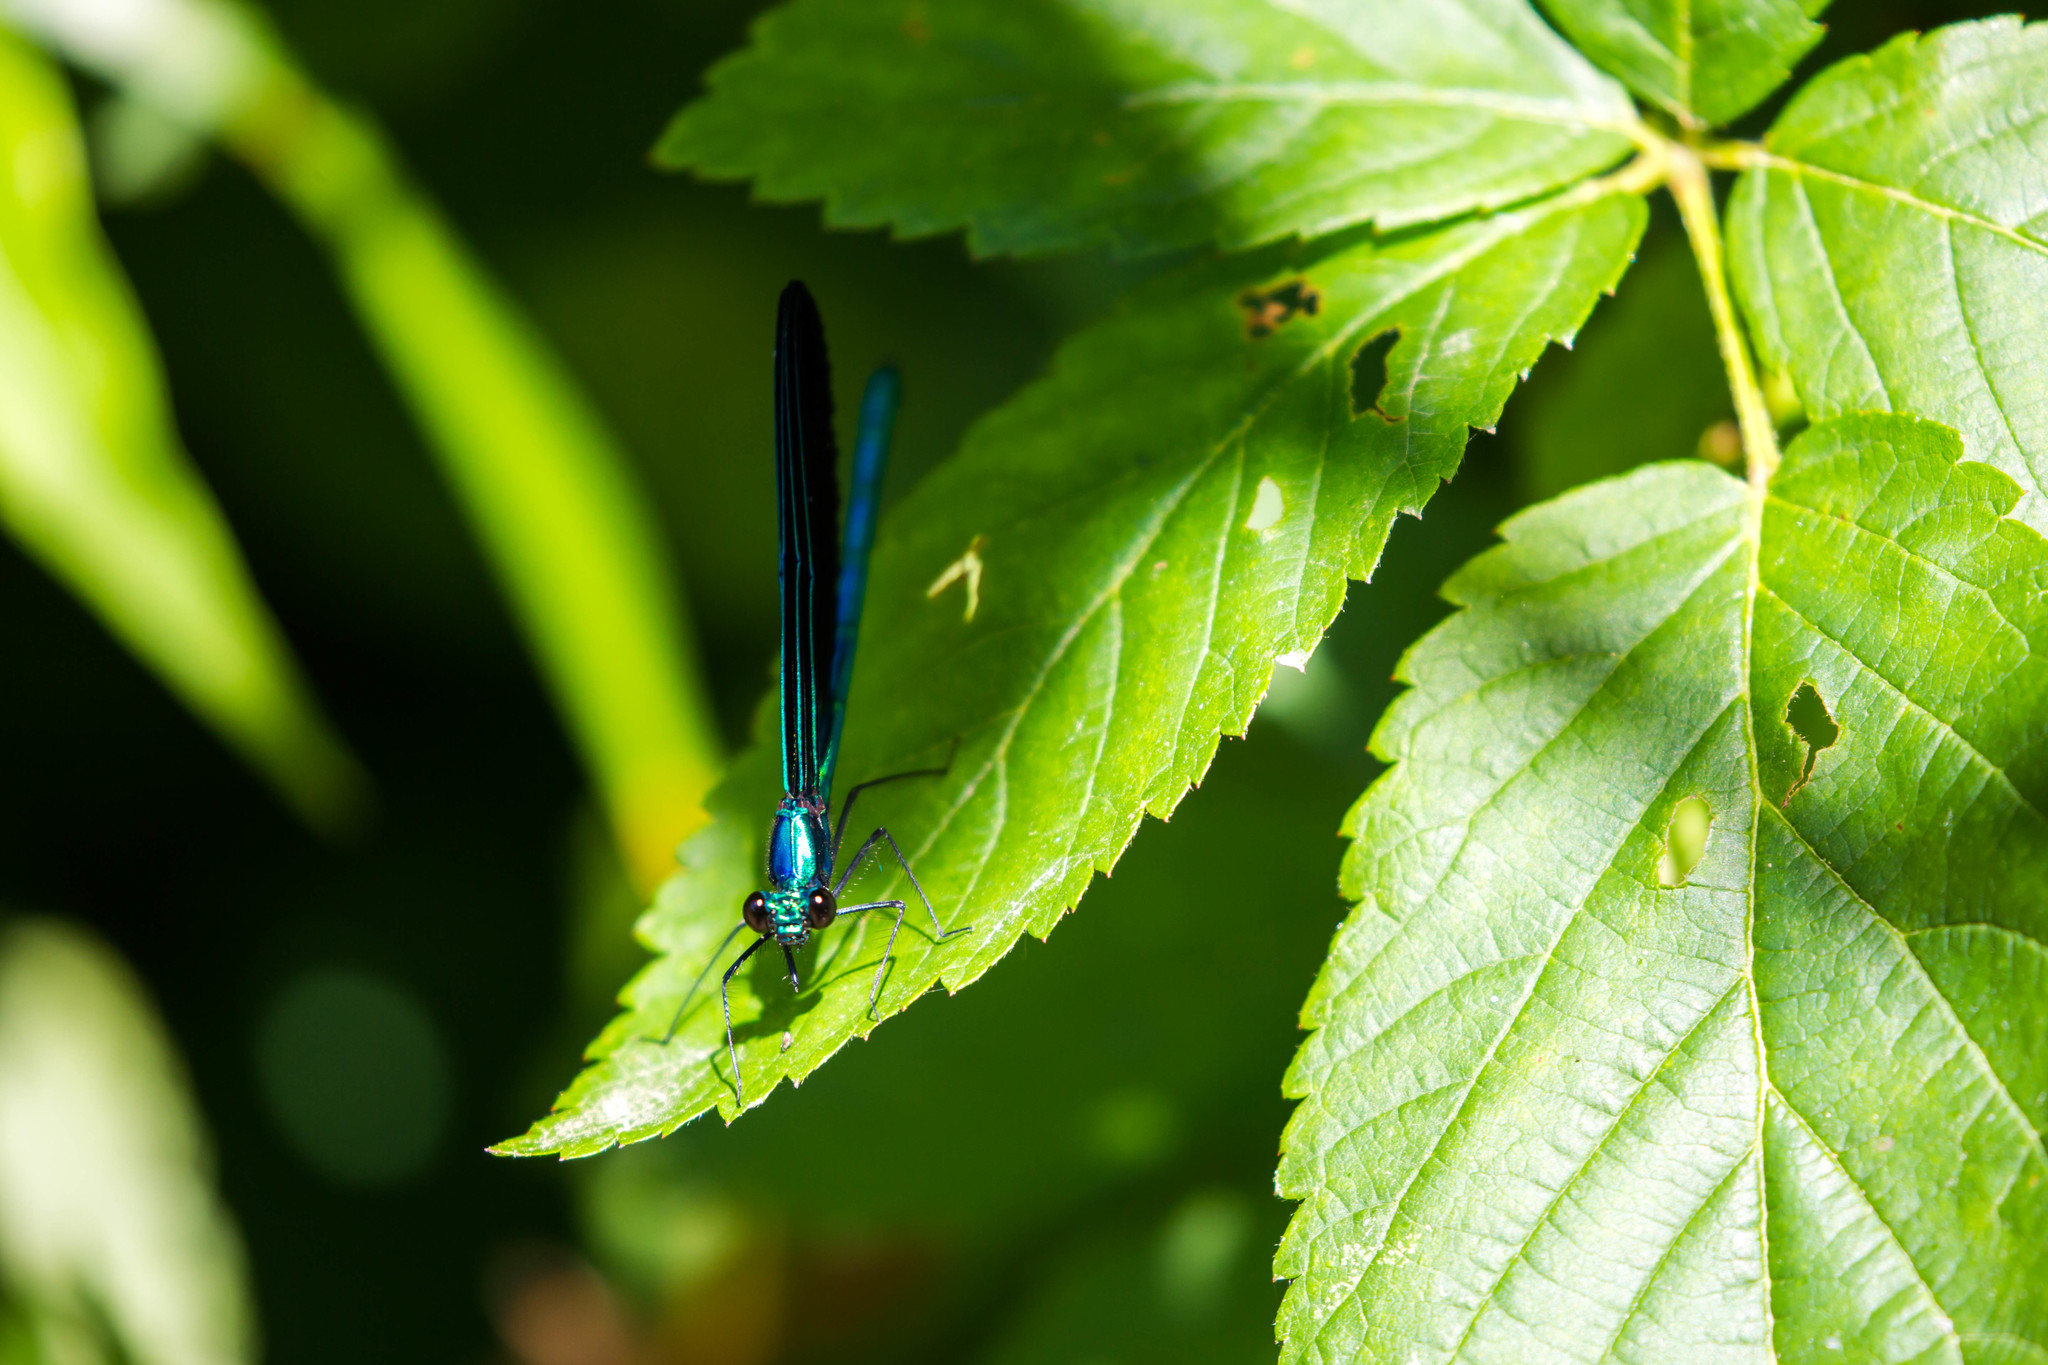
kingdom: Animalia
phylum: Arthropoda
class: Insecta
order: Odonata
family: Calopterygidae
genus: Calopteryx
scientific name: Calopteryx maculata
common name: Ebony jewelwing
